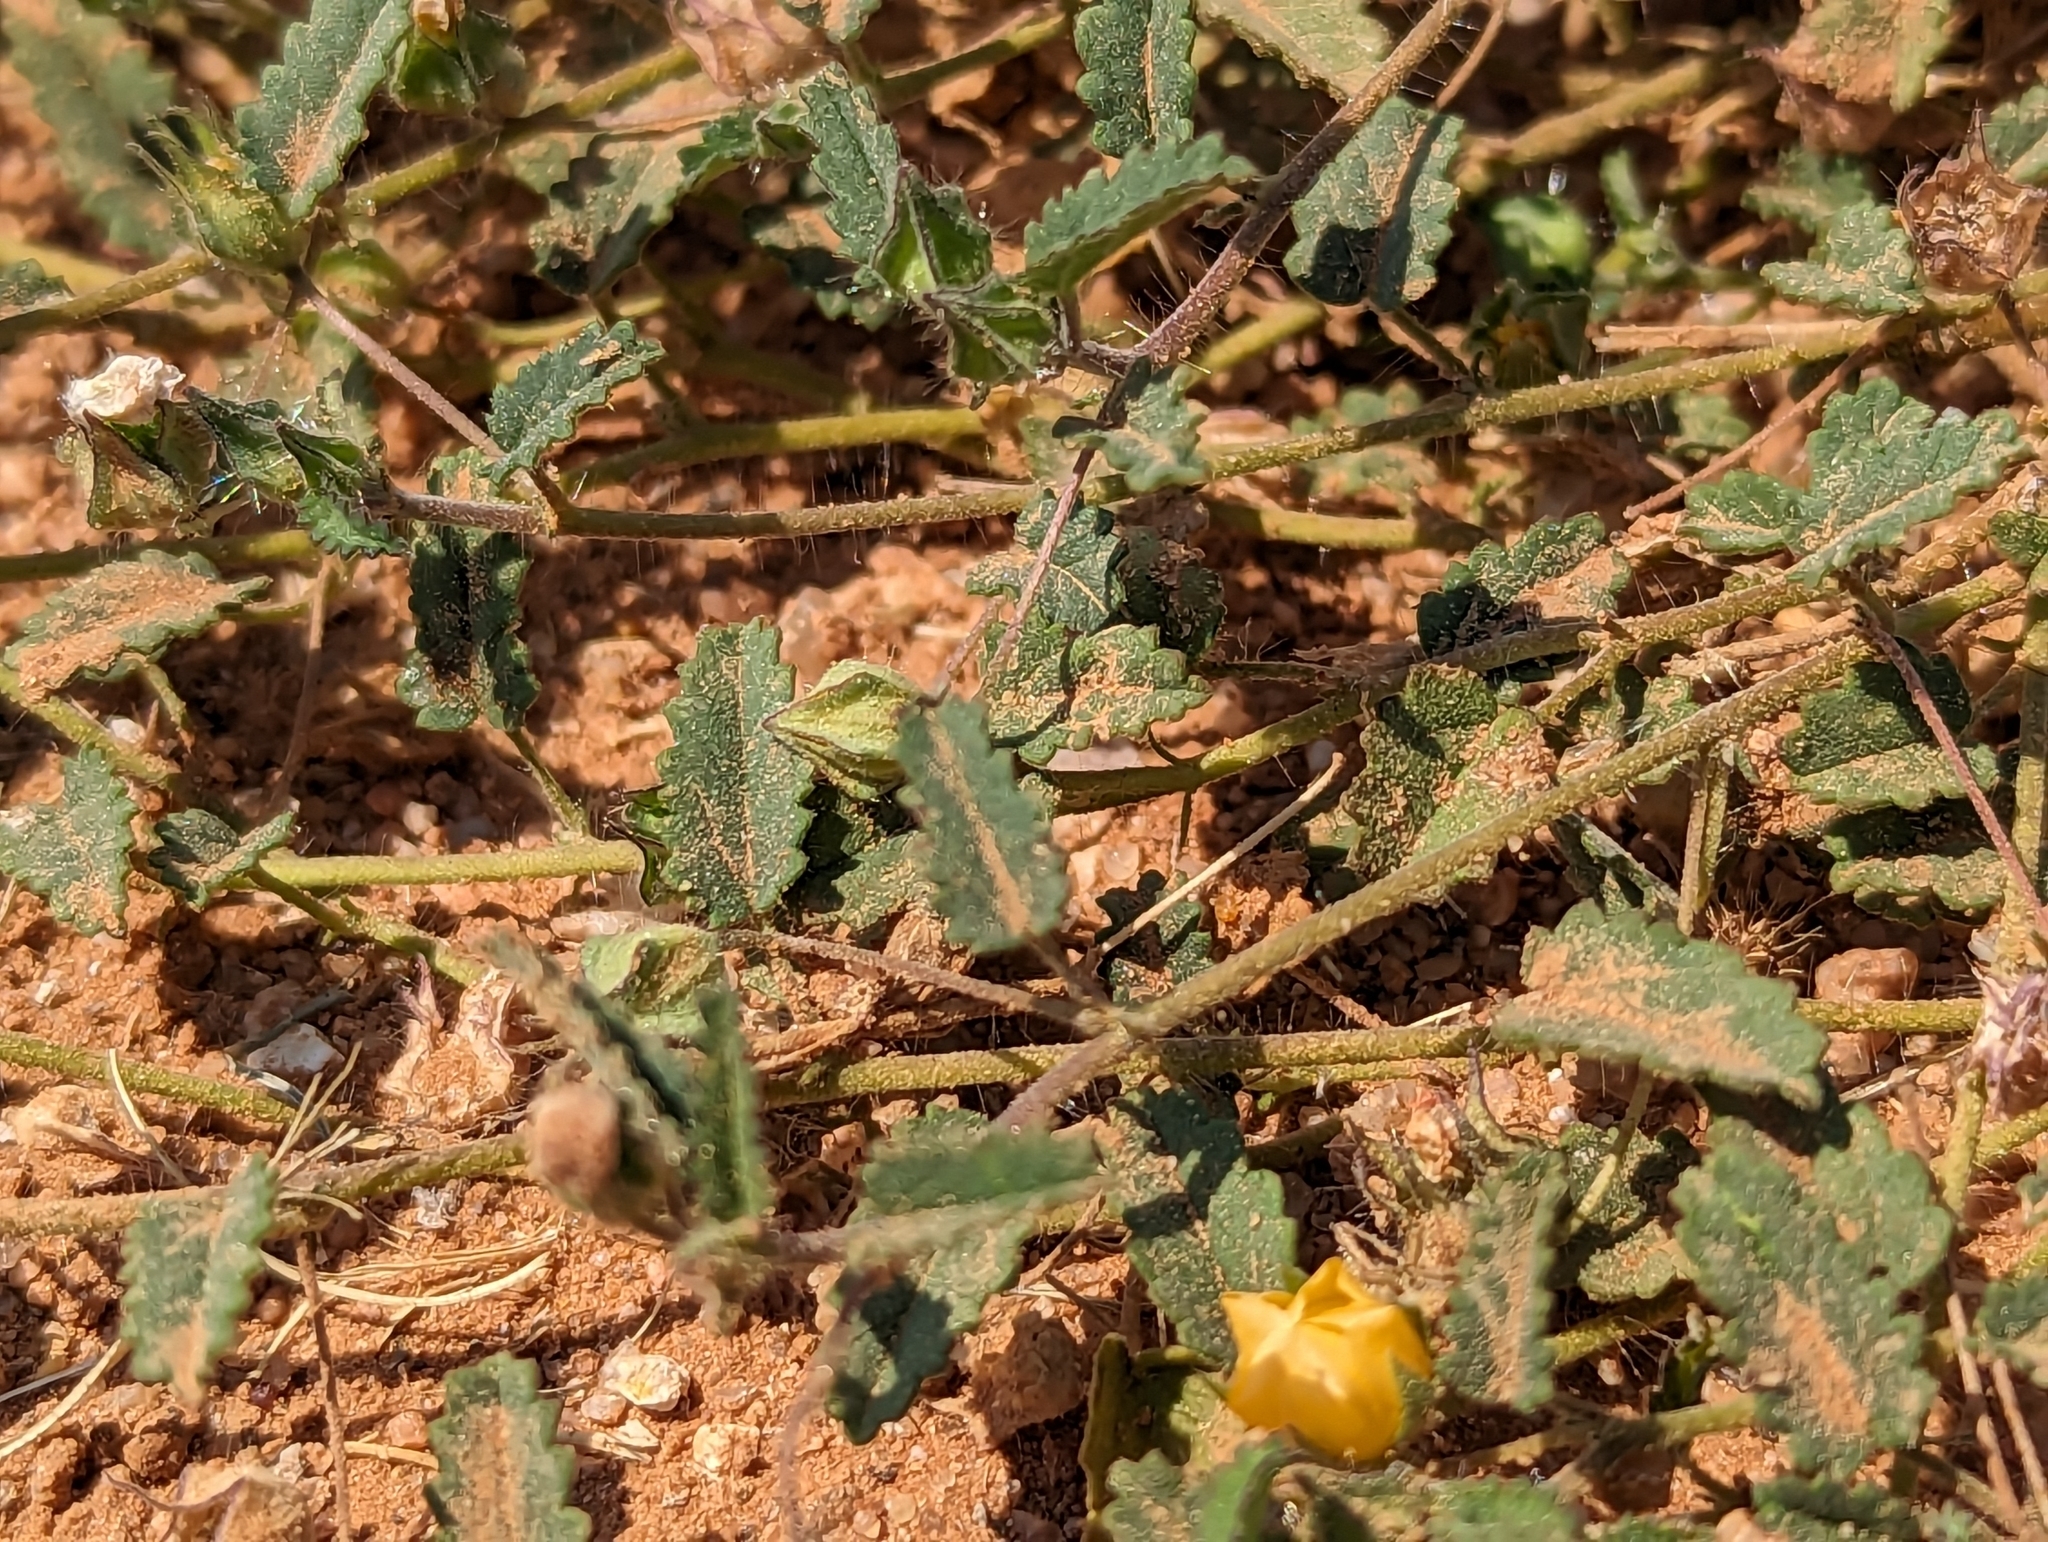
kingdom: Plantae
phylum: Tracheophyta
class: Magnoliopsida
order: Malvales
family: Malvaceae
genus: Sida
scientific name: Sida abutilifolia
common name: Spreading fanpetals
